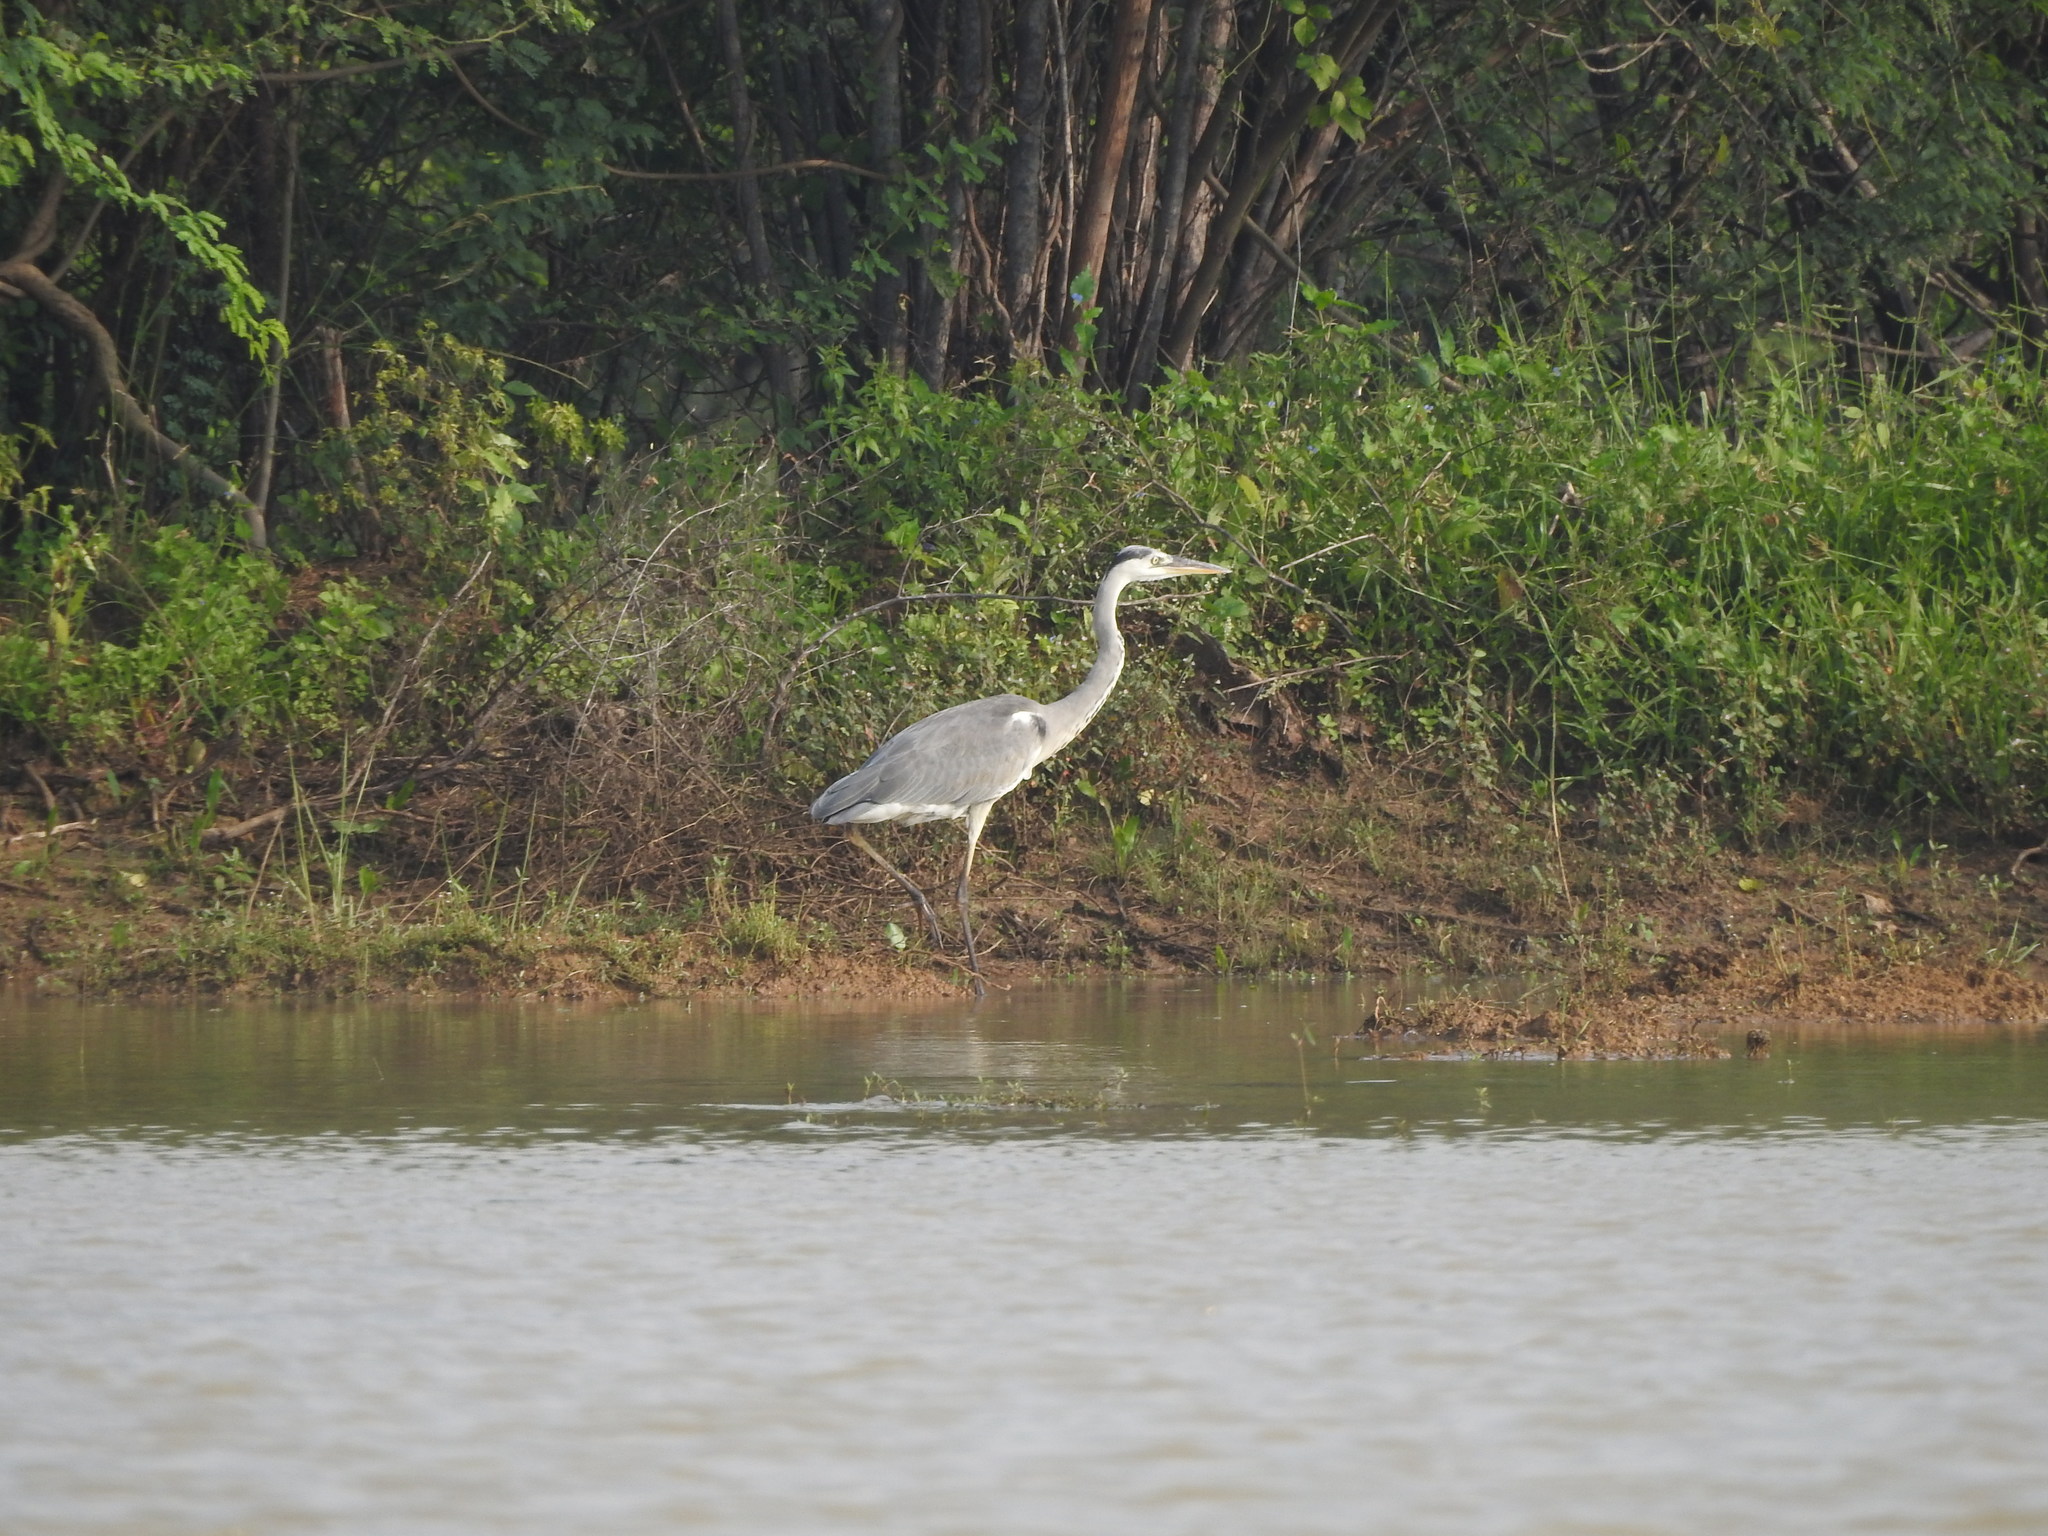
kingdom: Animalia
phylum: Chordata
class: Aves
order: Pelecaniformes
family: Ardeidae
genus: Ardea
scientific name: Ardea cinerea
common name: Grey heron
